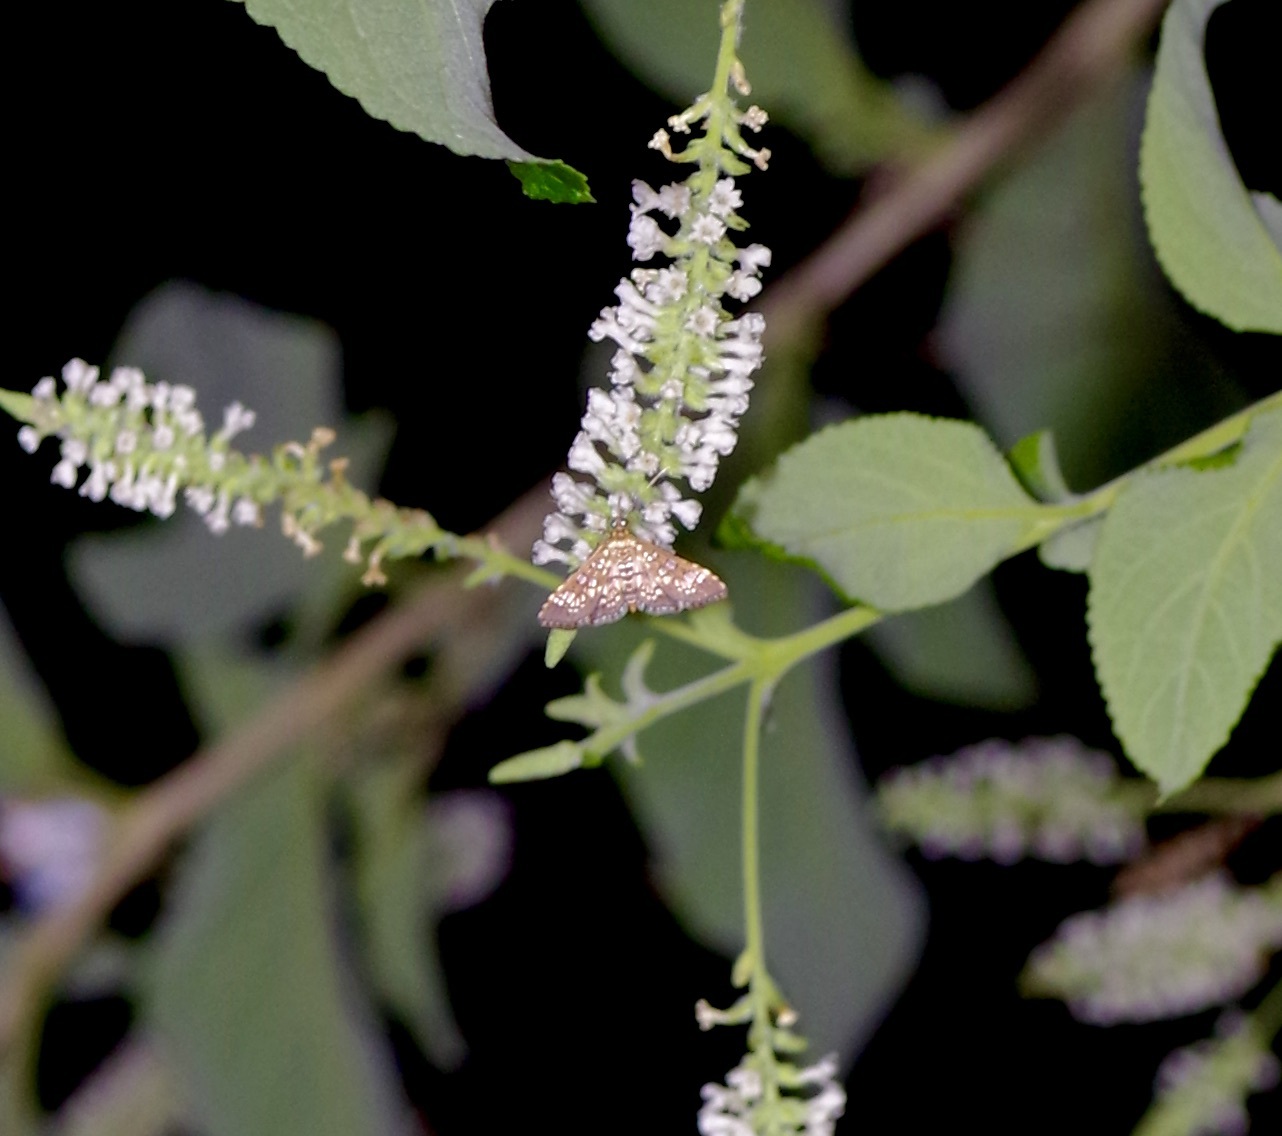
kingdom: Animalia
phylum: Arthropoda
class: Insecta
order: Lepidoptera
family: Crambidae
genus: Samea
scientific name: Samea ecclesialis
